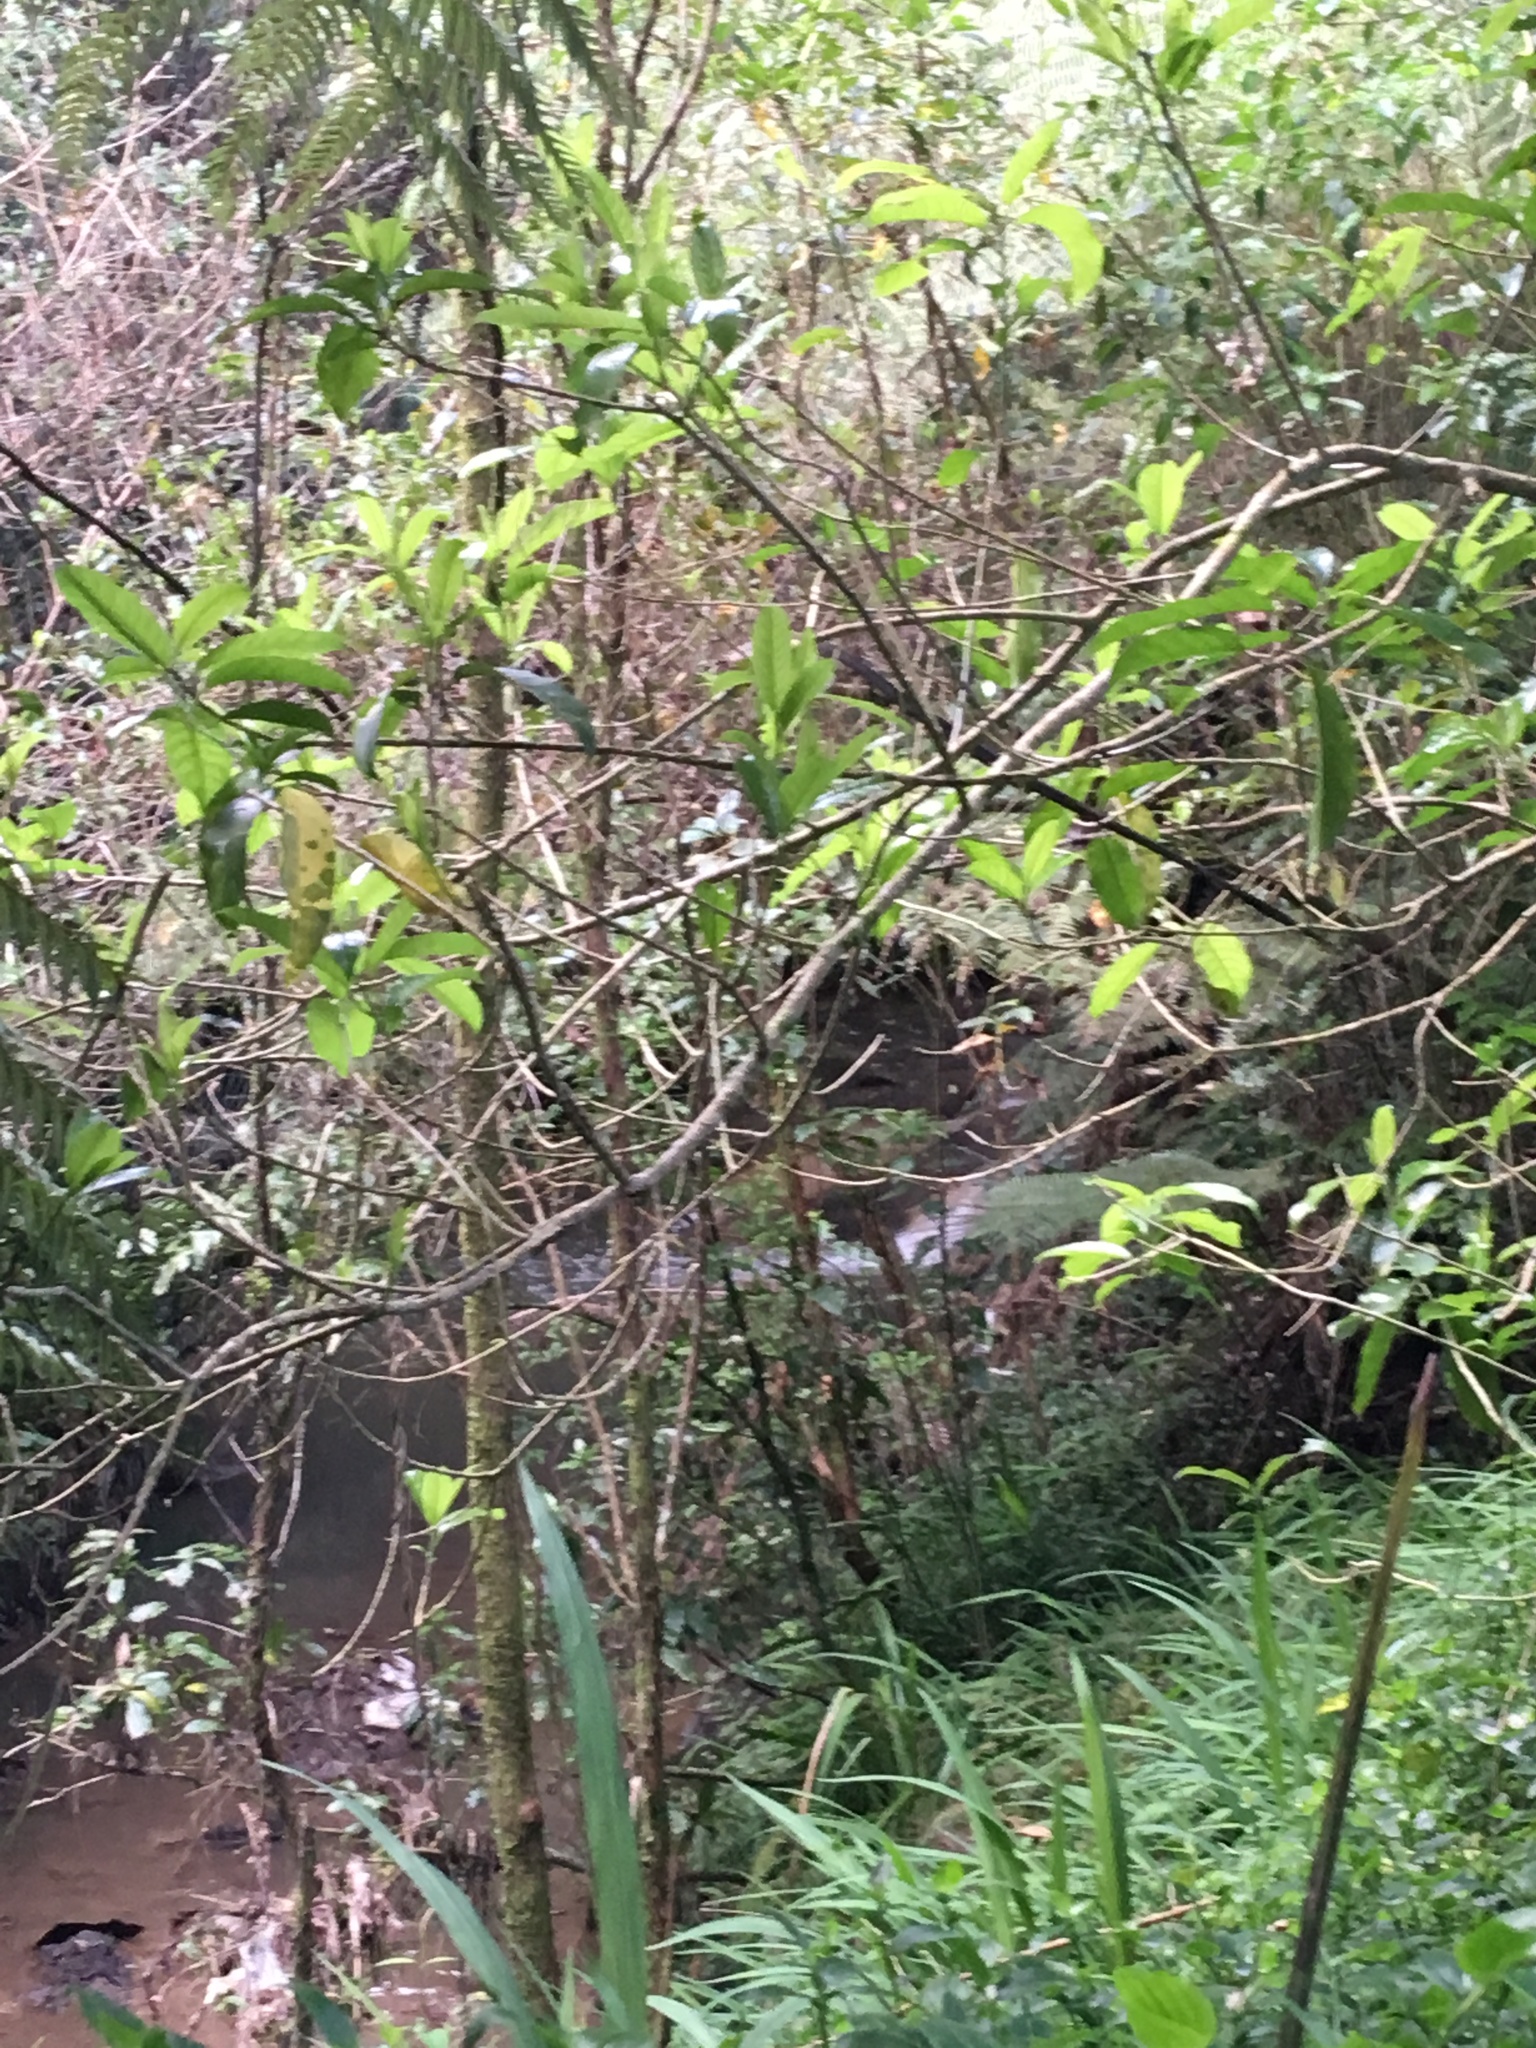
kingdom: Plantae
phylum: Tracheophyta
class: Magnoliopsida
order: Malpighiales
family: Violaceae
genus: Melicytus
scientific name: Melicytus ramiflorus
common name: Mahoe
